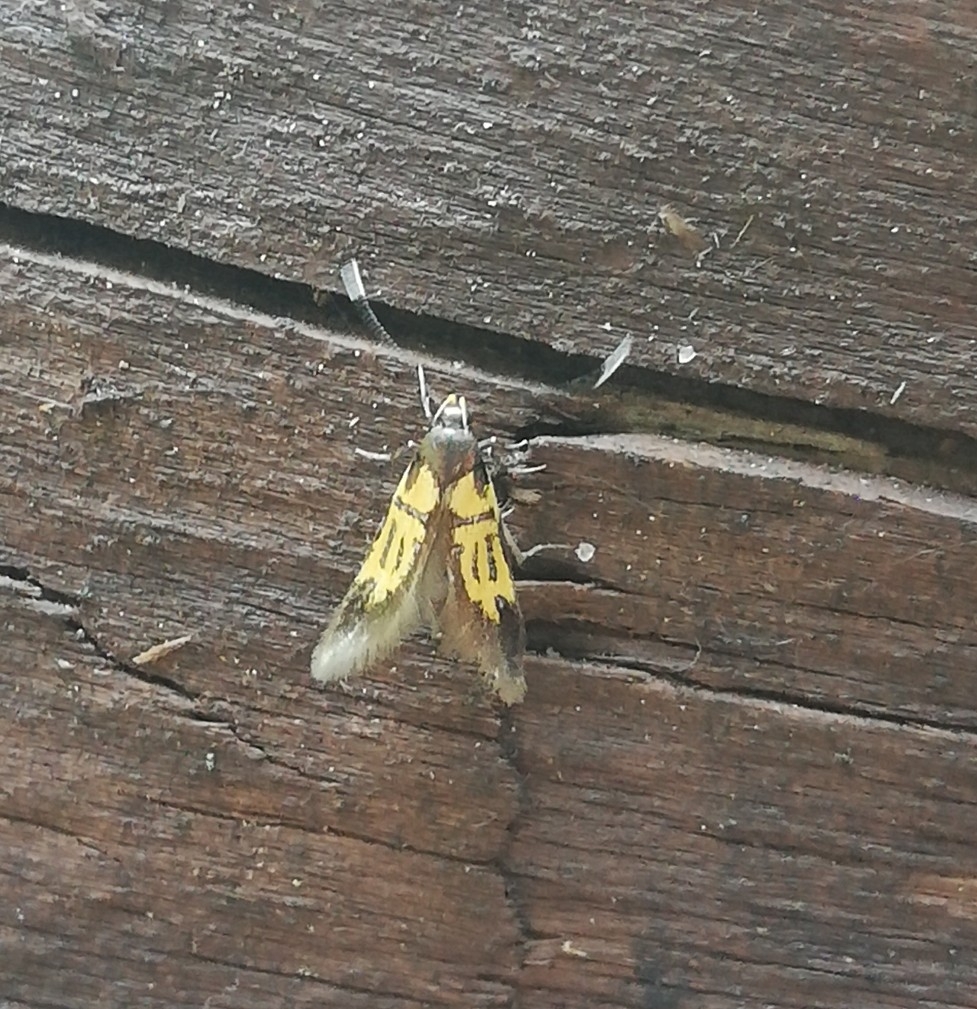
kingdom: Animalia
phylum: Arthropoda
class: Insecta
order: Lepidoptera
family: Oecophoridae
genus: Schiffermuelleria
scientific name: Schiffermuelleria schaefferella
